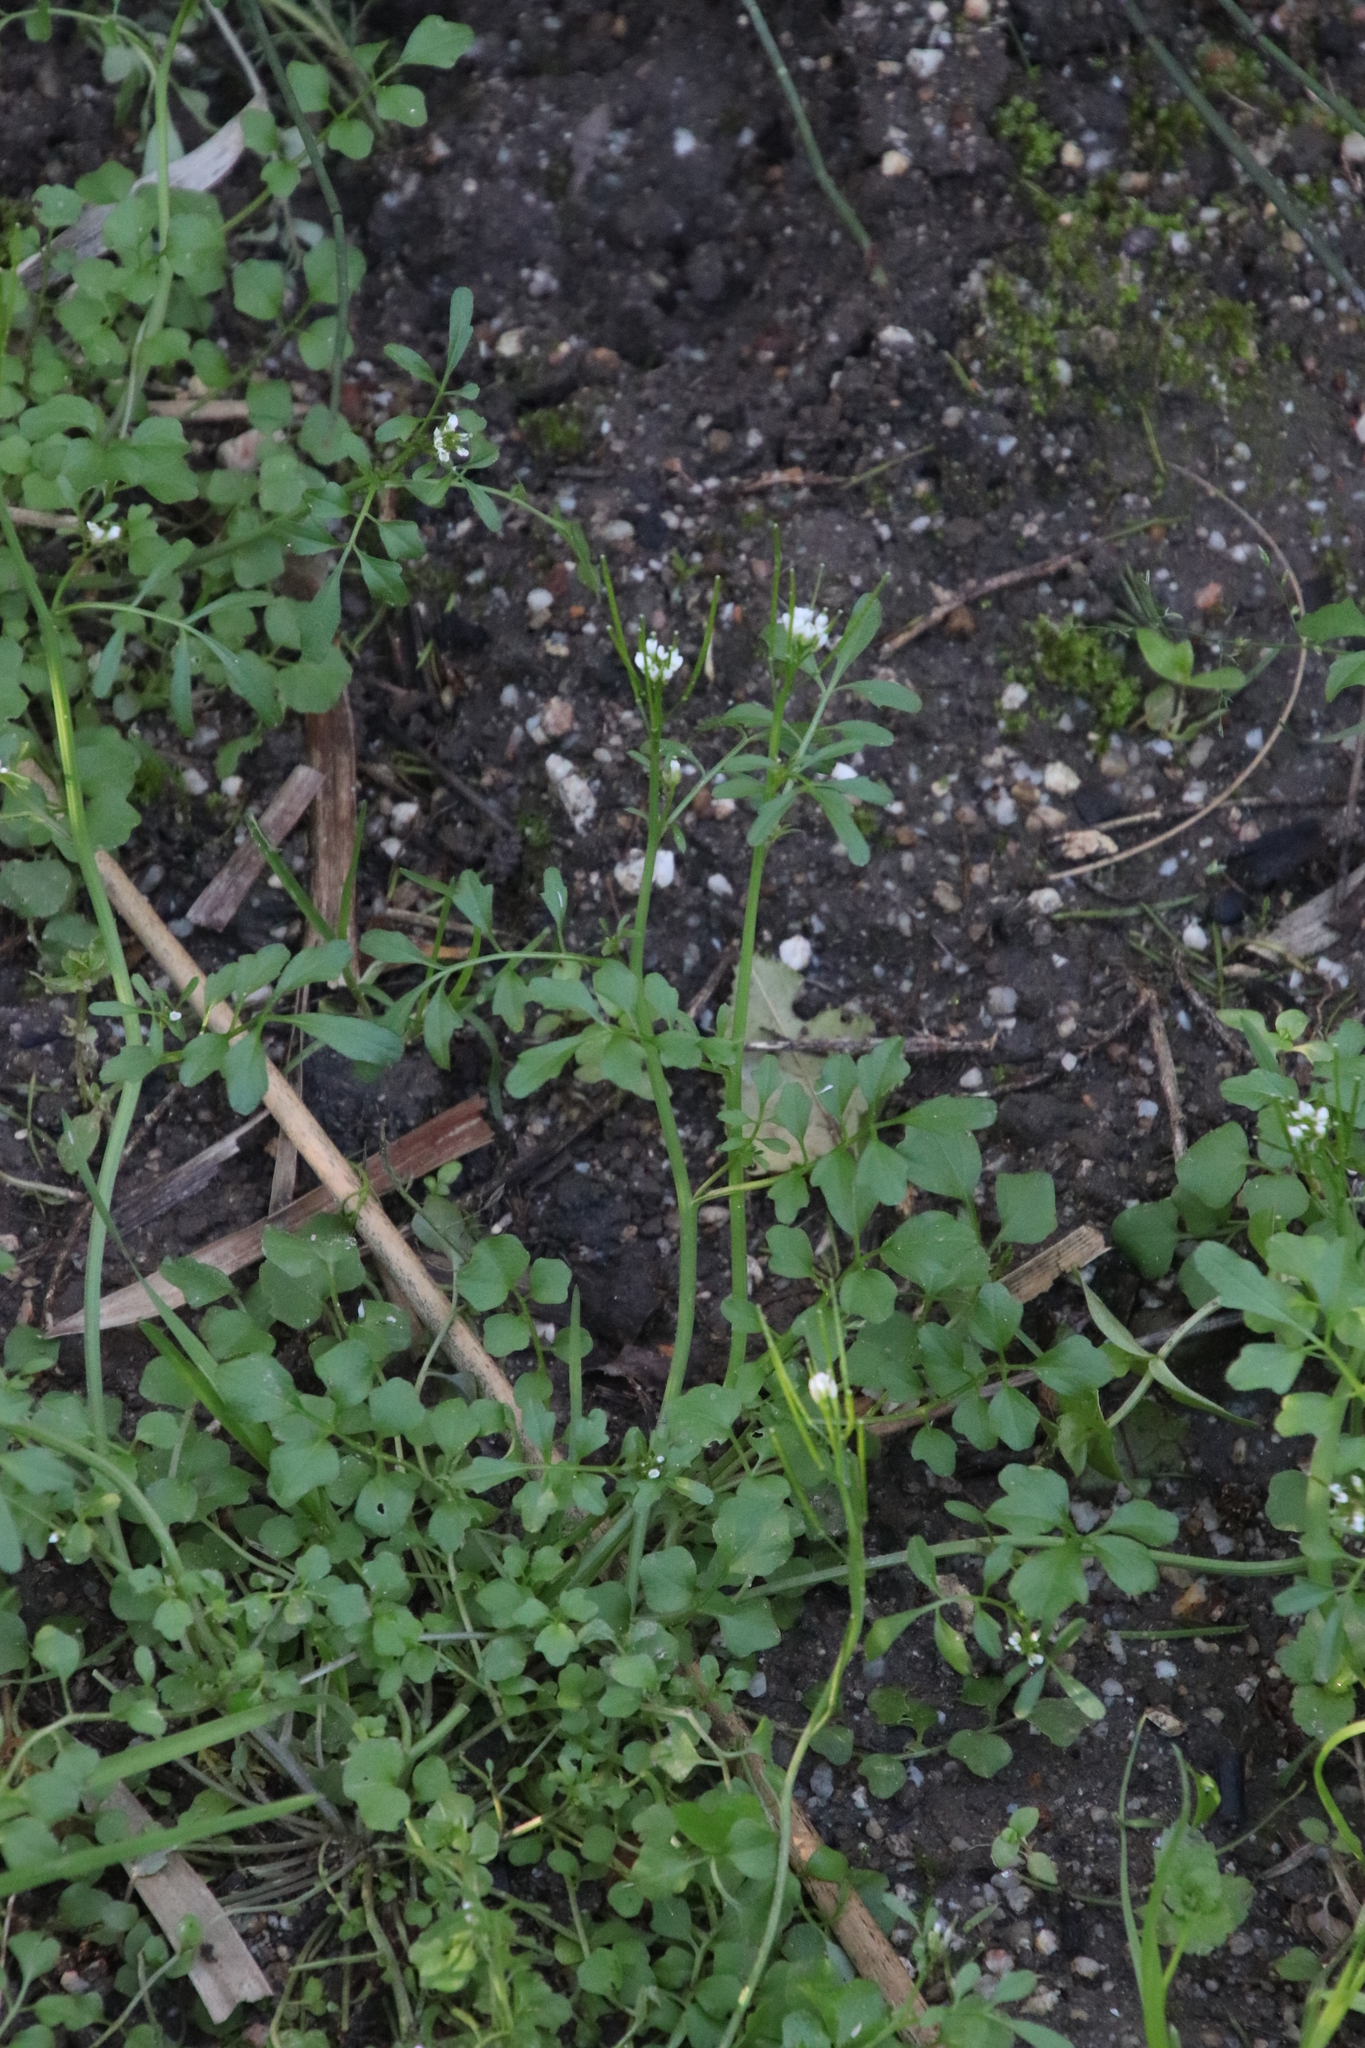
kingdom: Plantae
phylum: Tracheophyta
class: Magnoliopsida
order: Brassicales
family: Brassicaceae
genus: Cardamine
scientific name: Cardamine hirsuta
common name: Hairy bittercress
